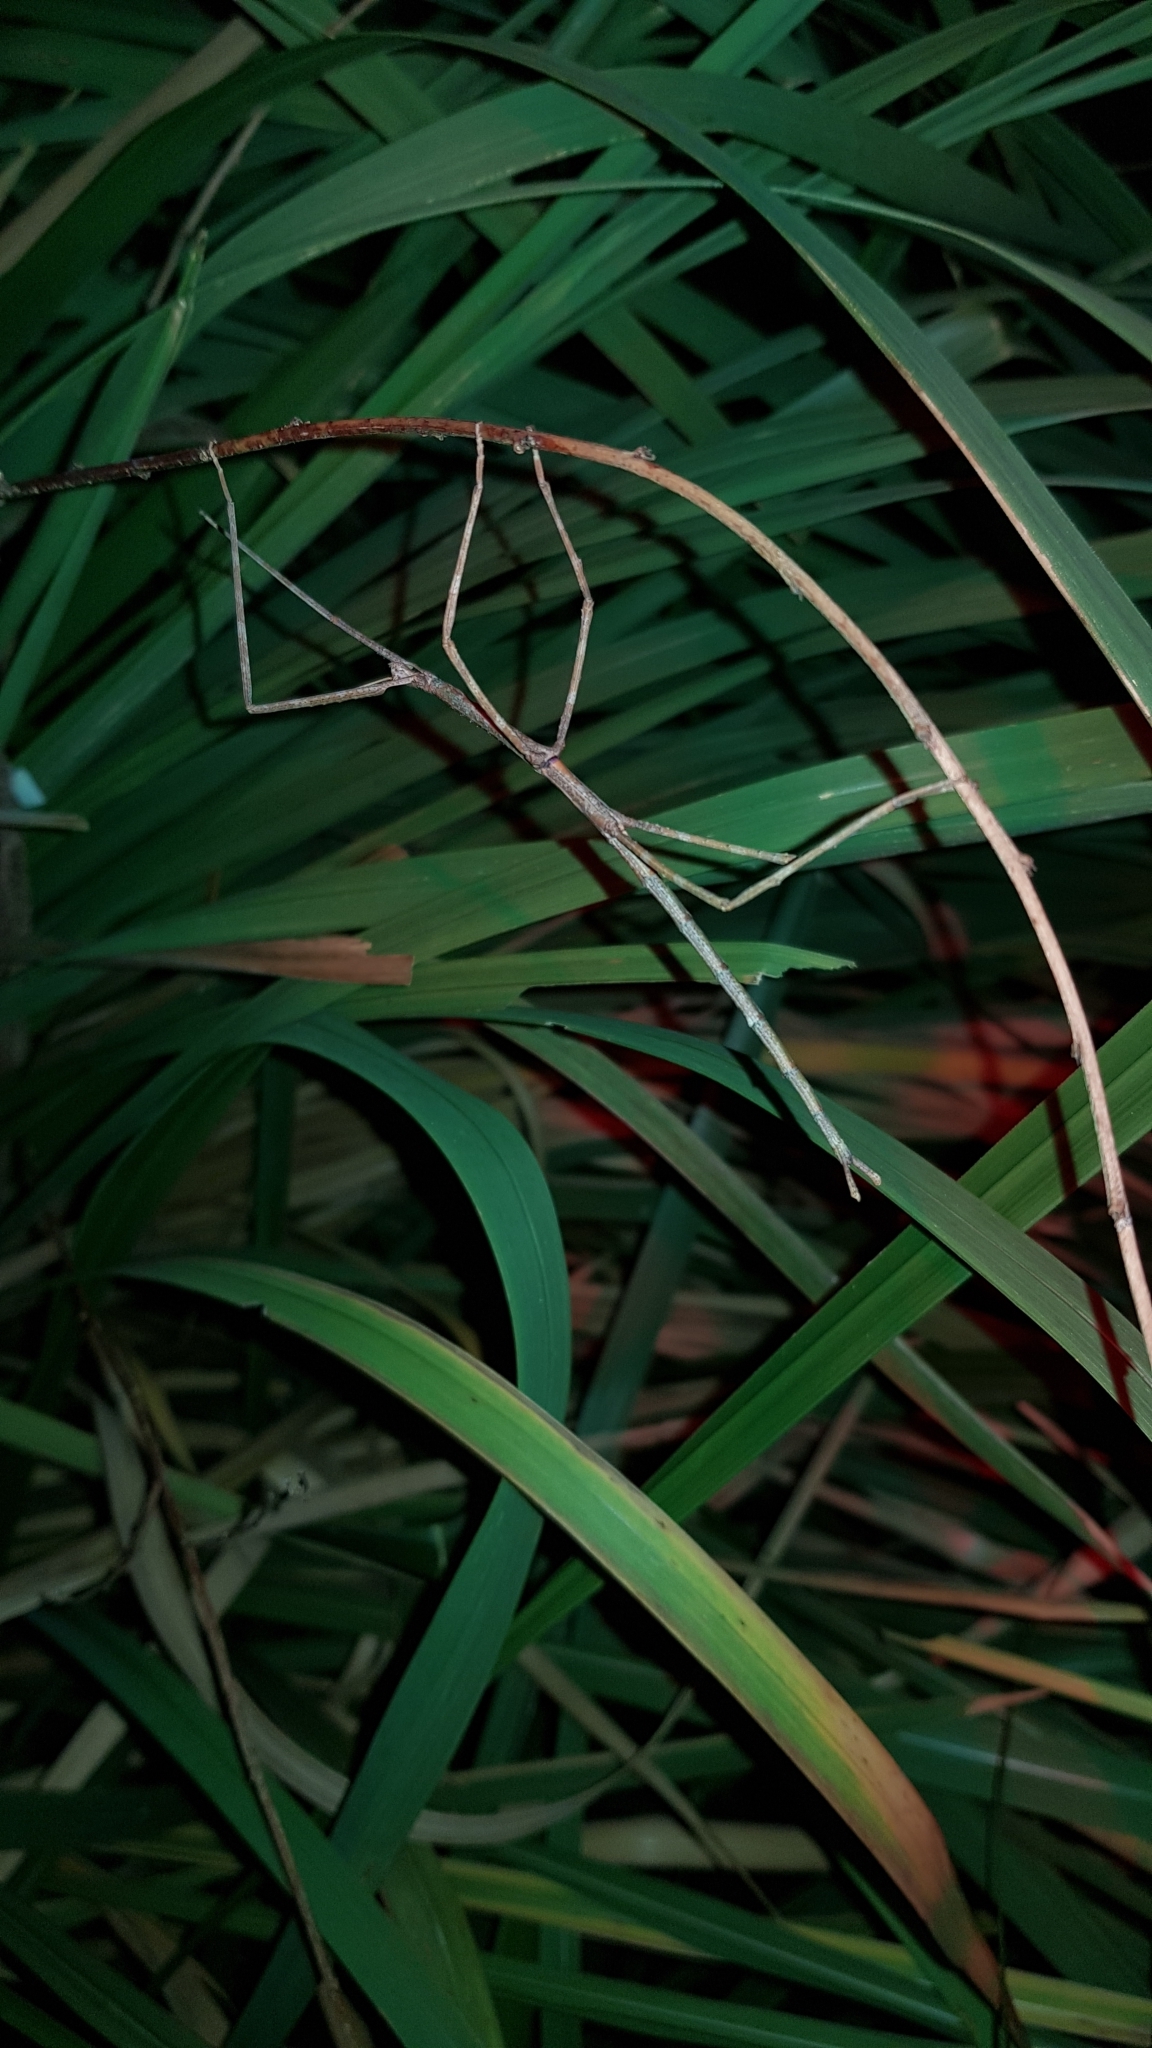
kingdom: Animalia
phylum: Arthropoda
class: Insecta
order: Phasmida
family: Phasmatidae
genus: Ctenomorpha
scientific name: Ctenomorpha marginipennis
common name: Margined-winged stick-insect
